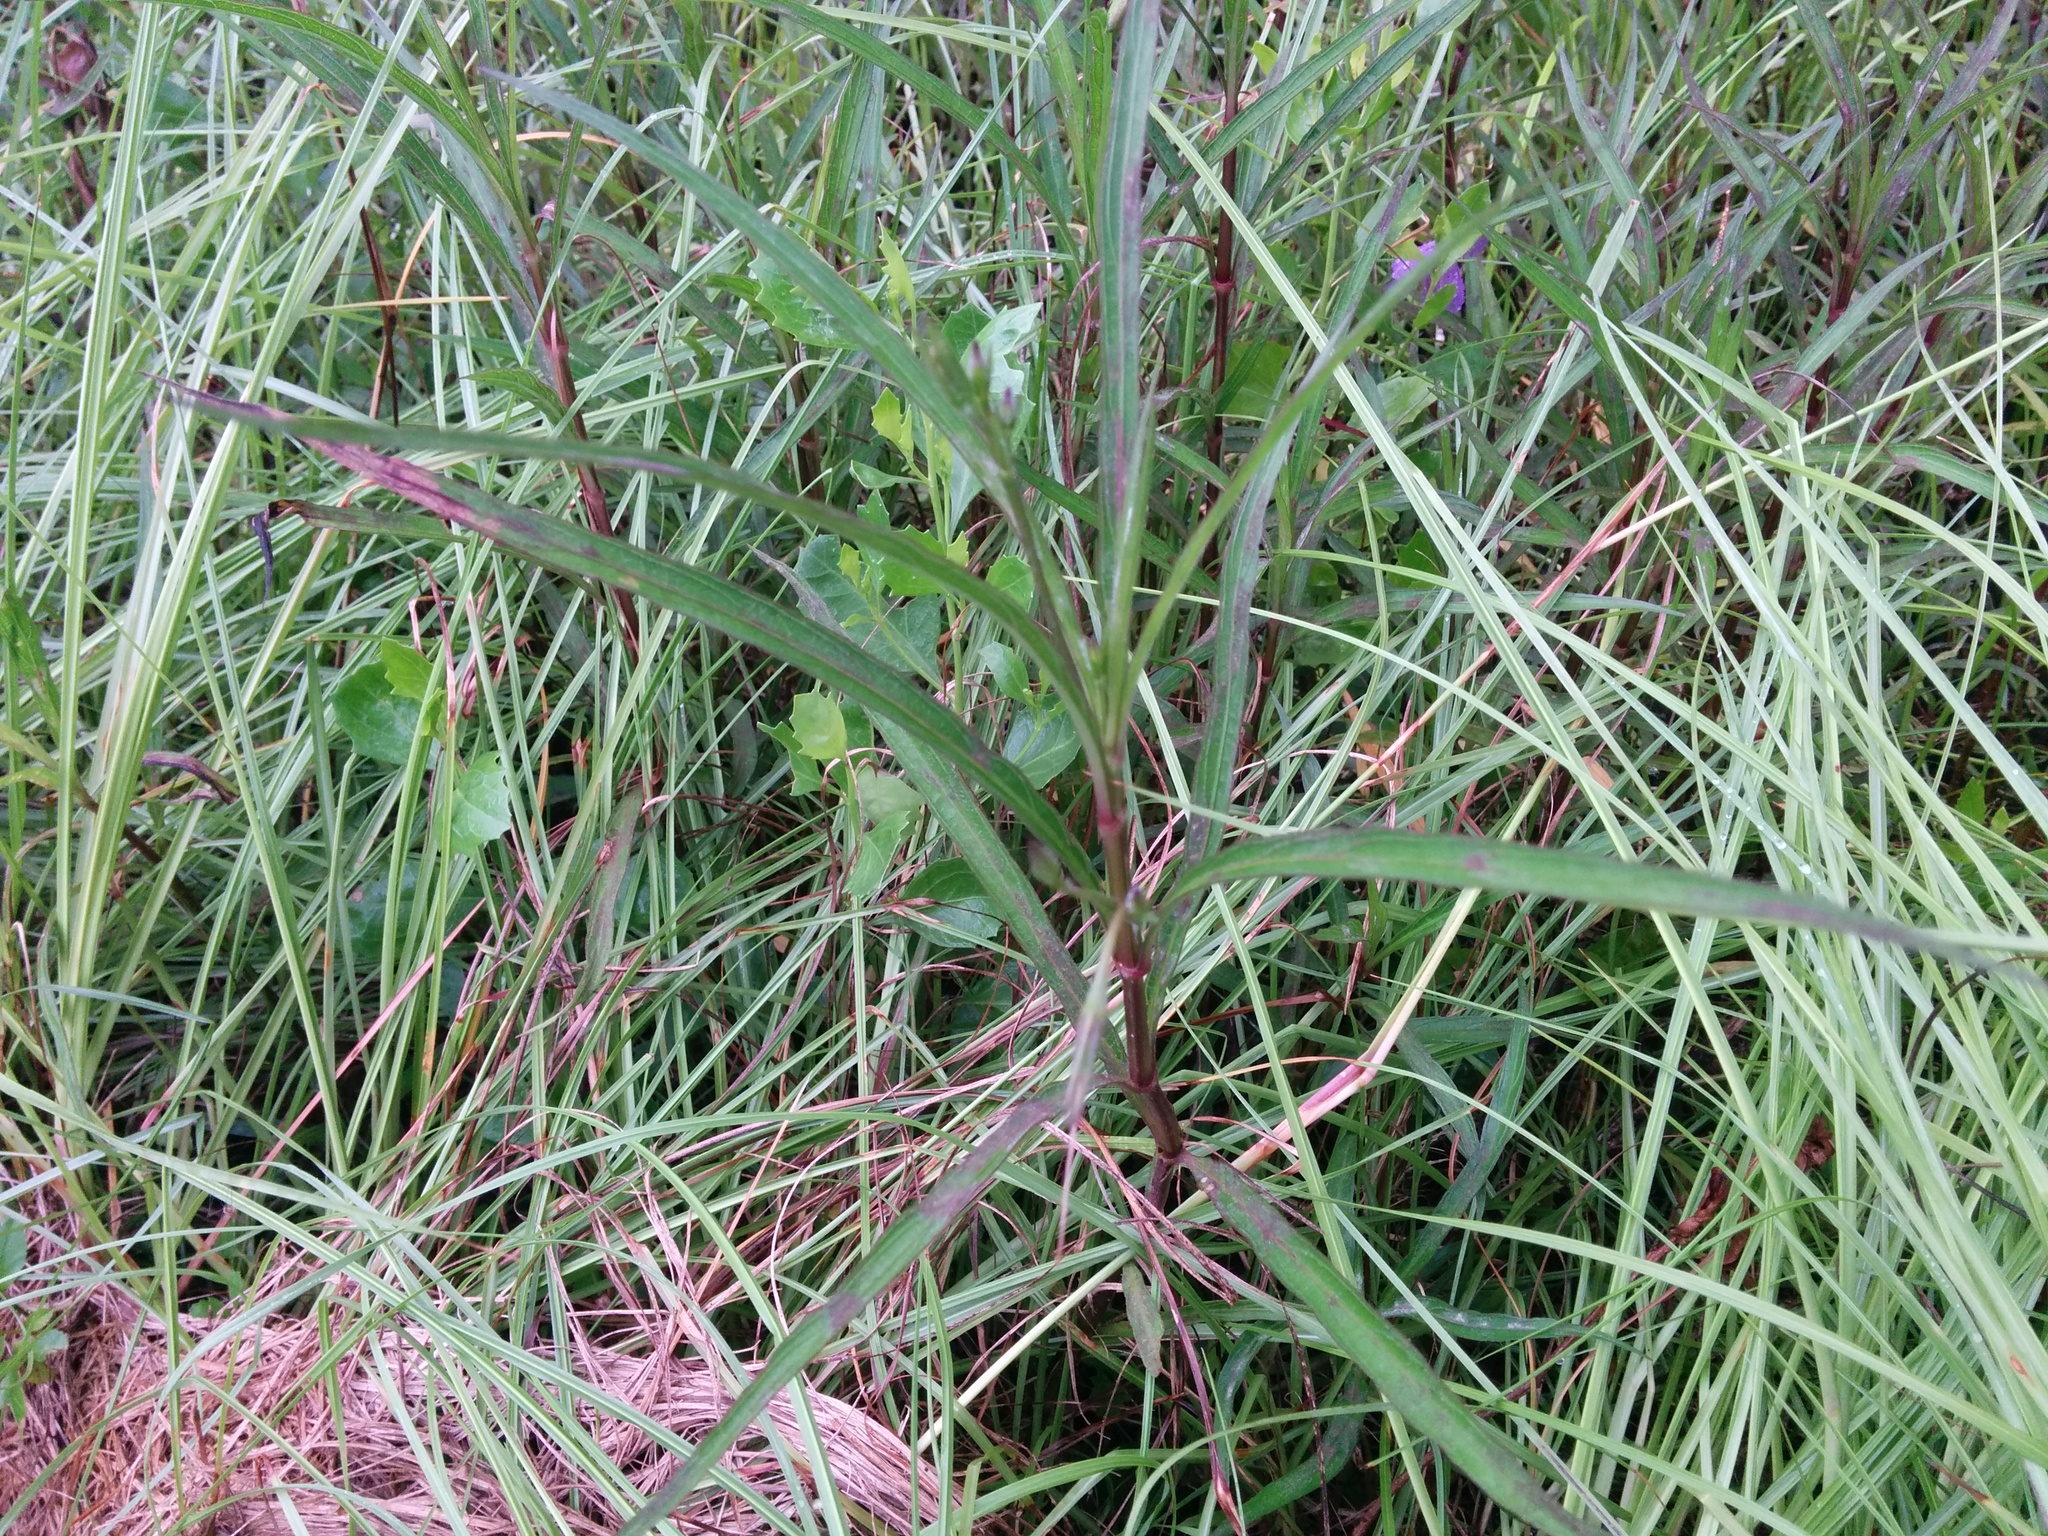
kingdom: Plantae
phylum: Tracheophyta
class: Magnoliopsida
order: Lamiales
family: Acanthaceae
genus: Ruellia
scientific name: Ruellia simplex
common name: Softseed wild petunia
